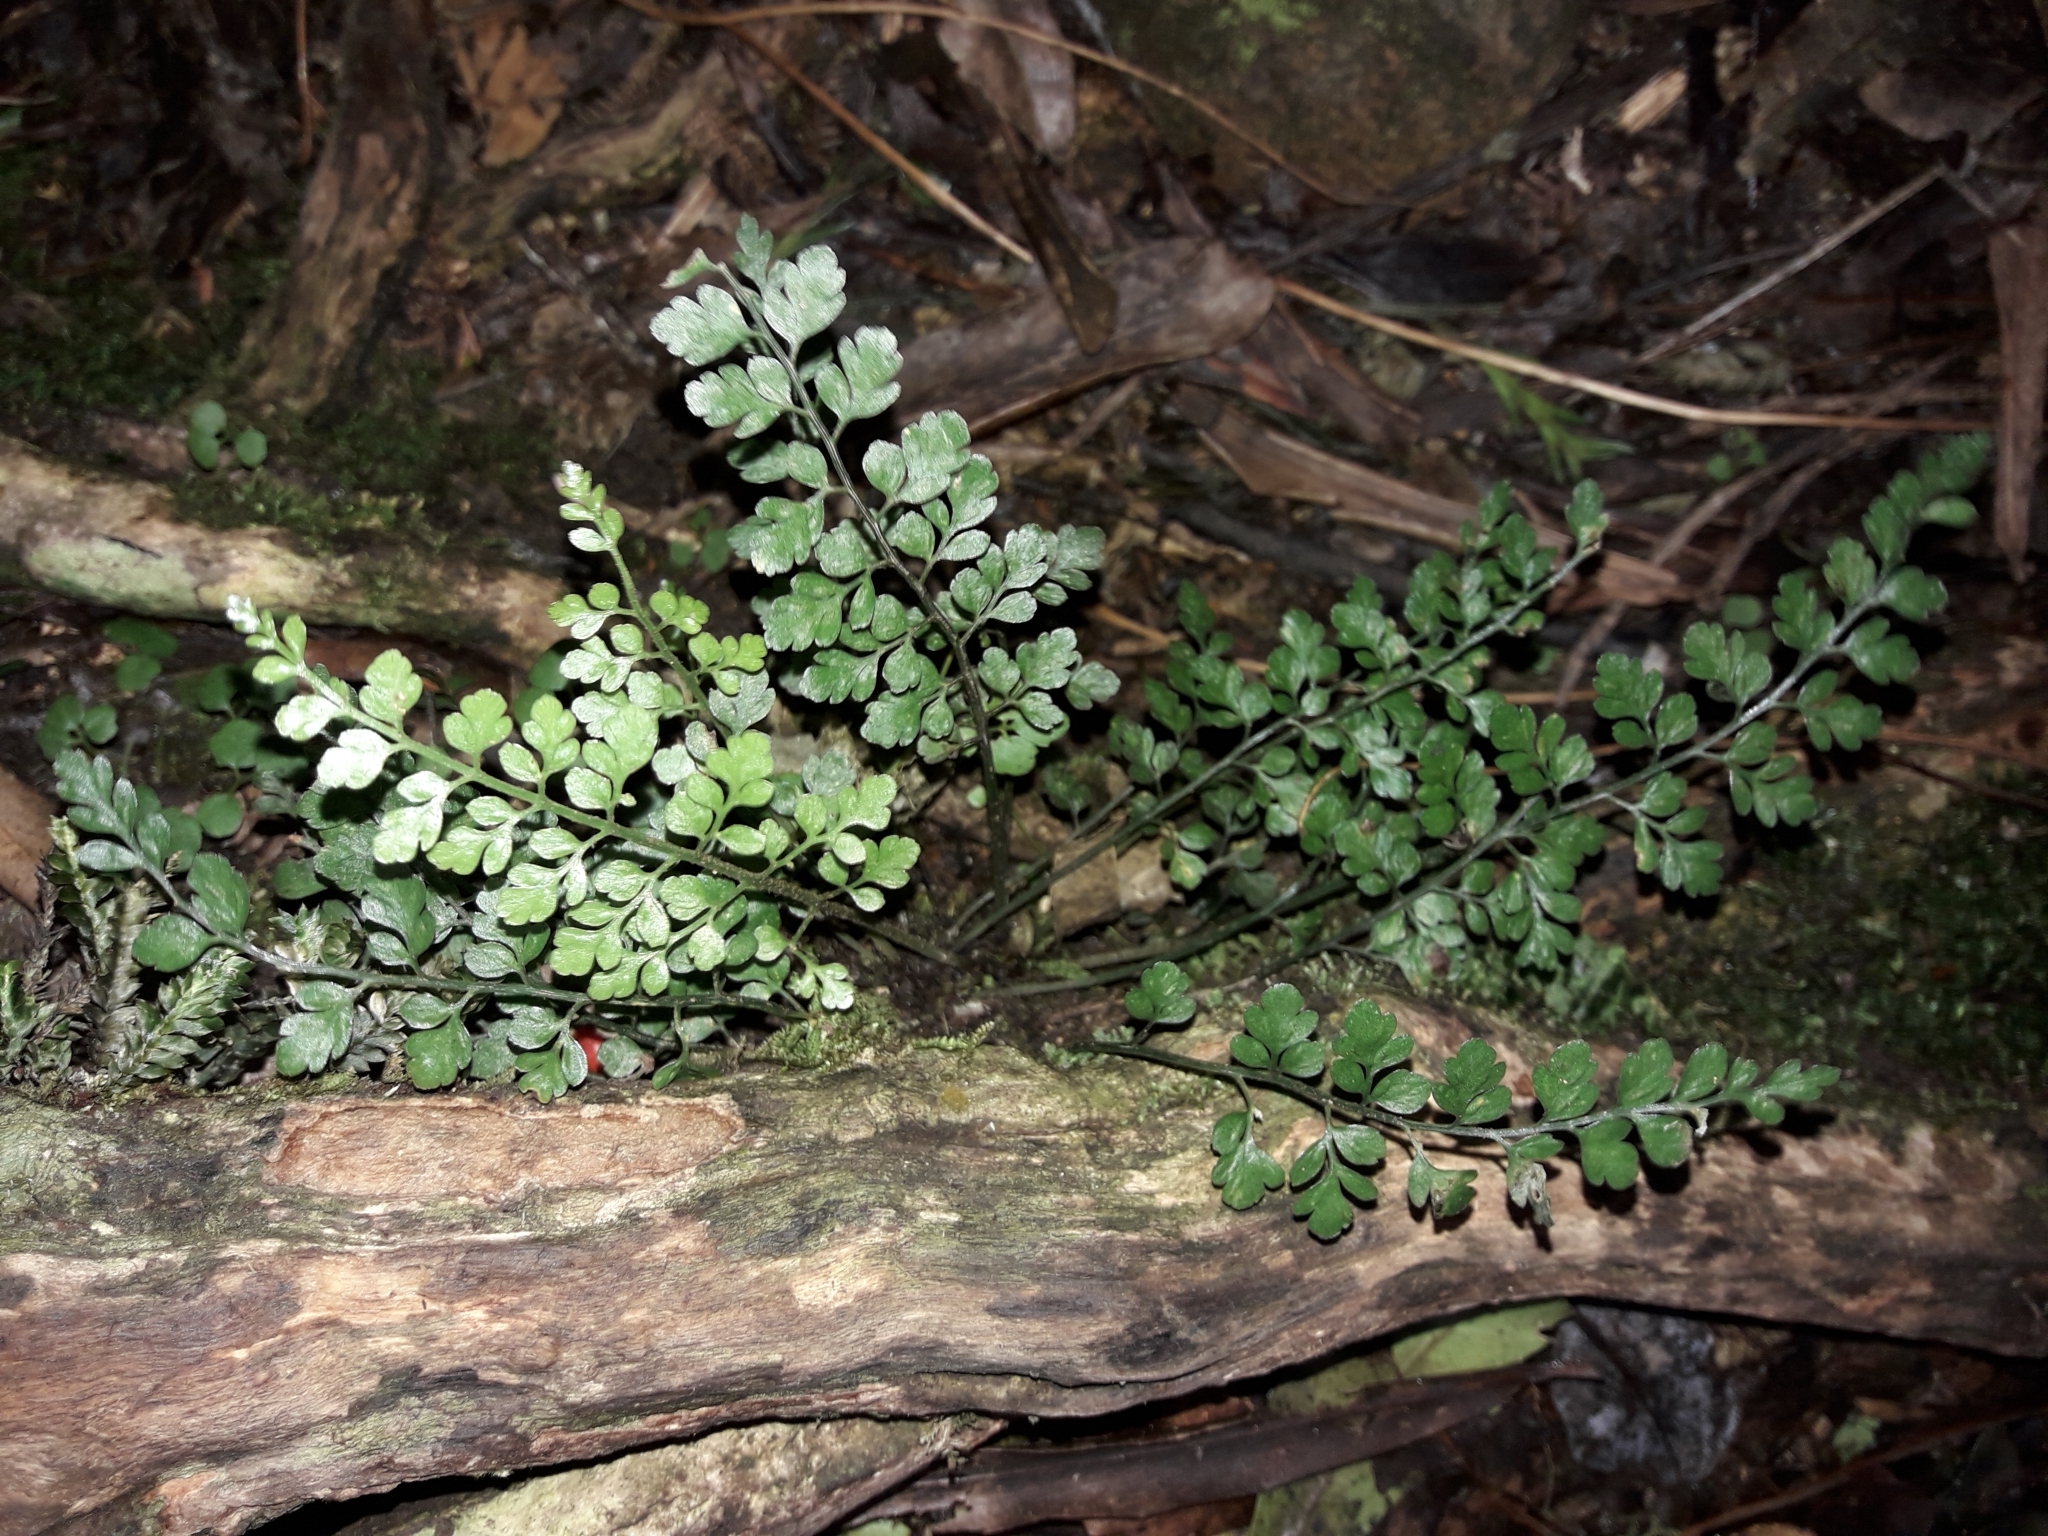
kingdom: Plantae
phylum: Tracheophyta
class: Polypodiopsida
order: Polypodiales
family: Aspleniaceae
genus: Asplenium
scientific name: Asplenium hookerianum
